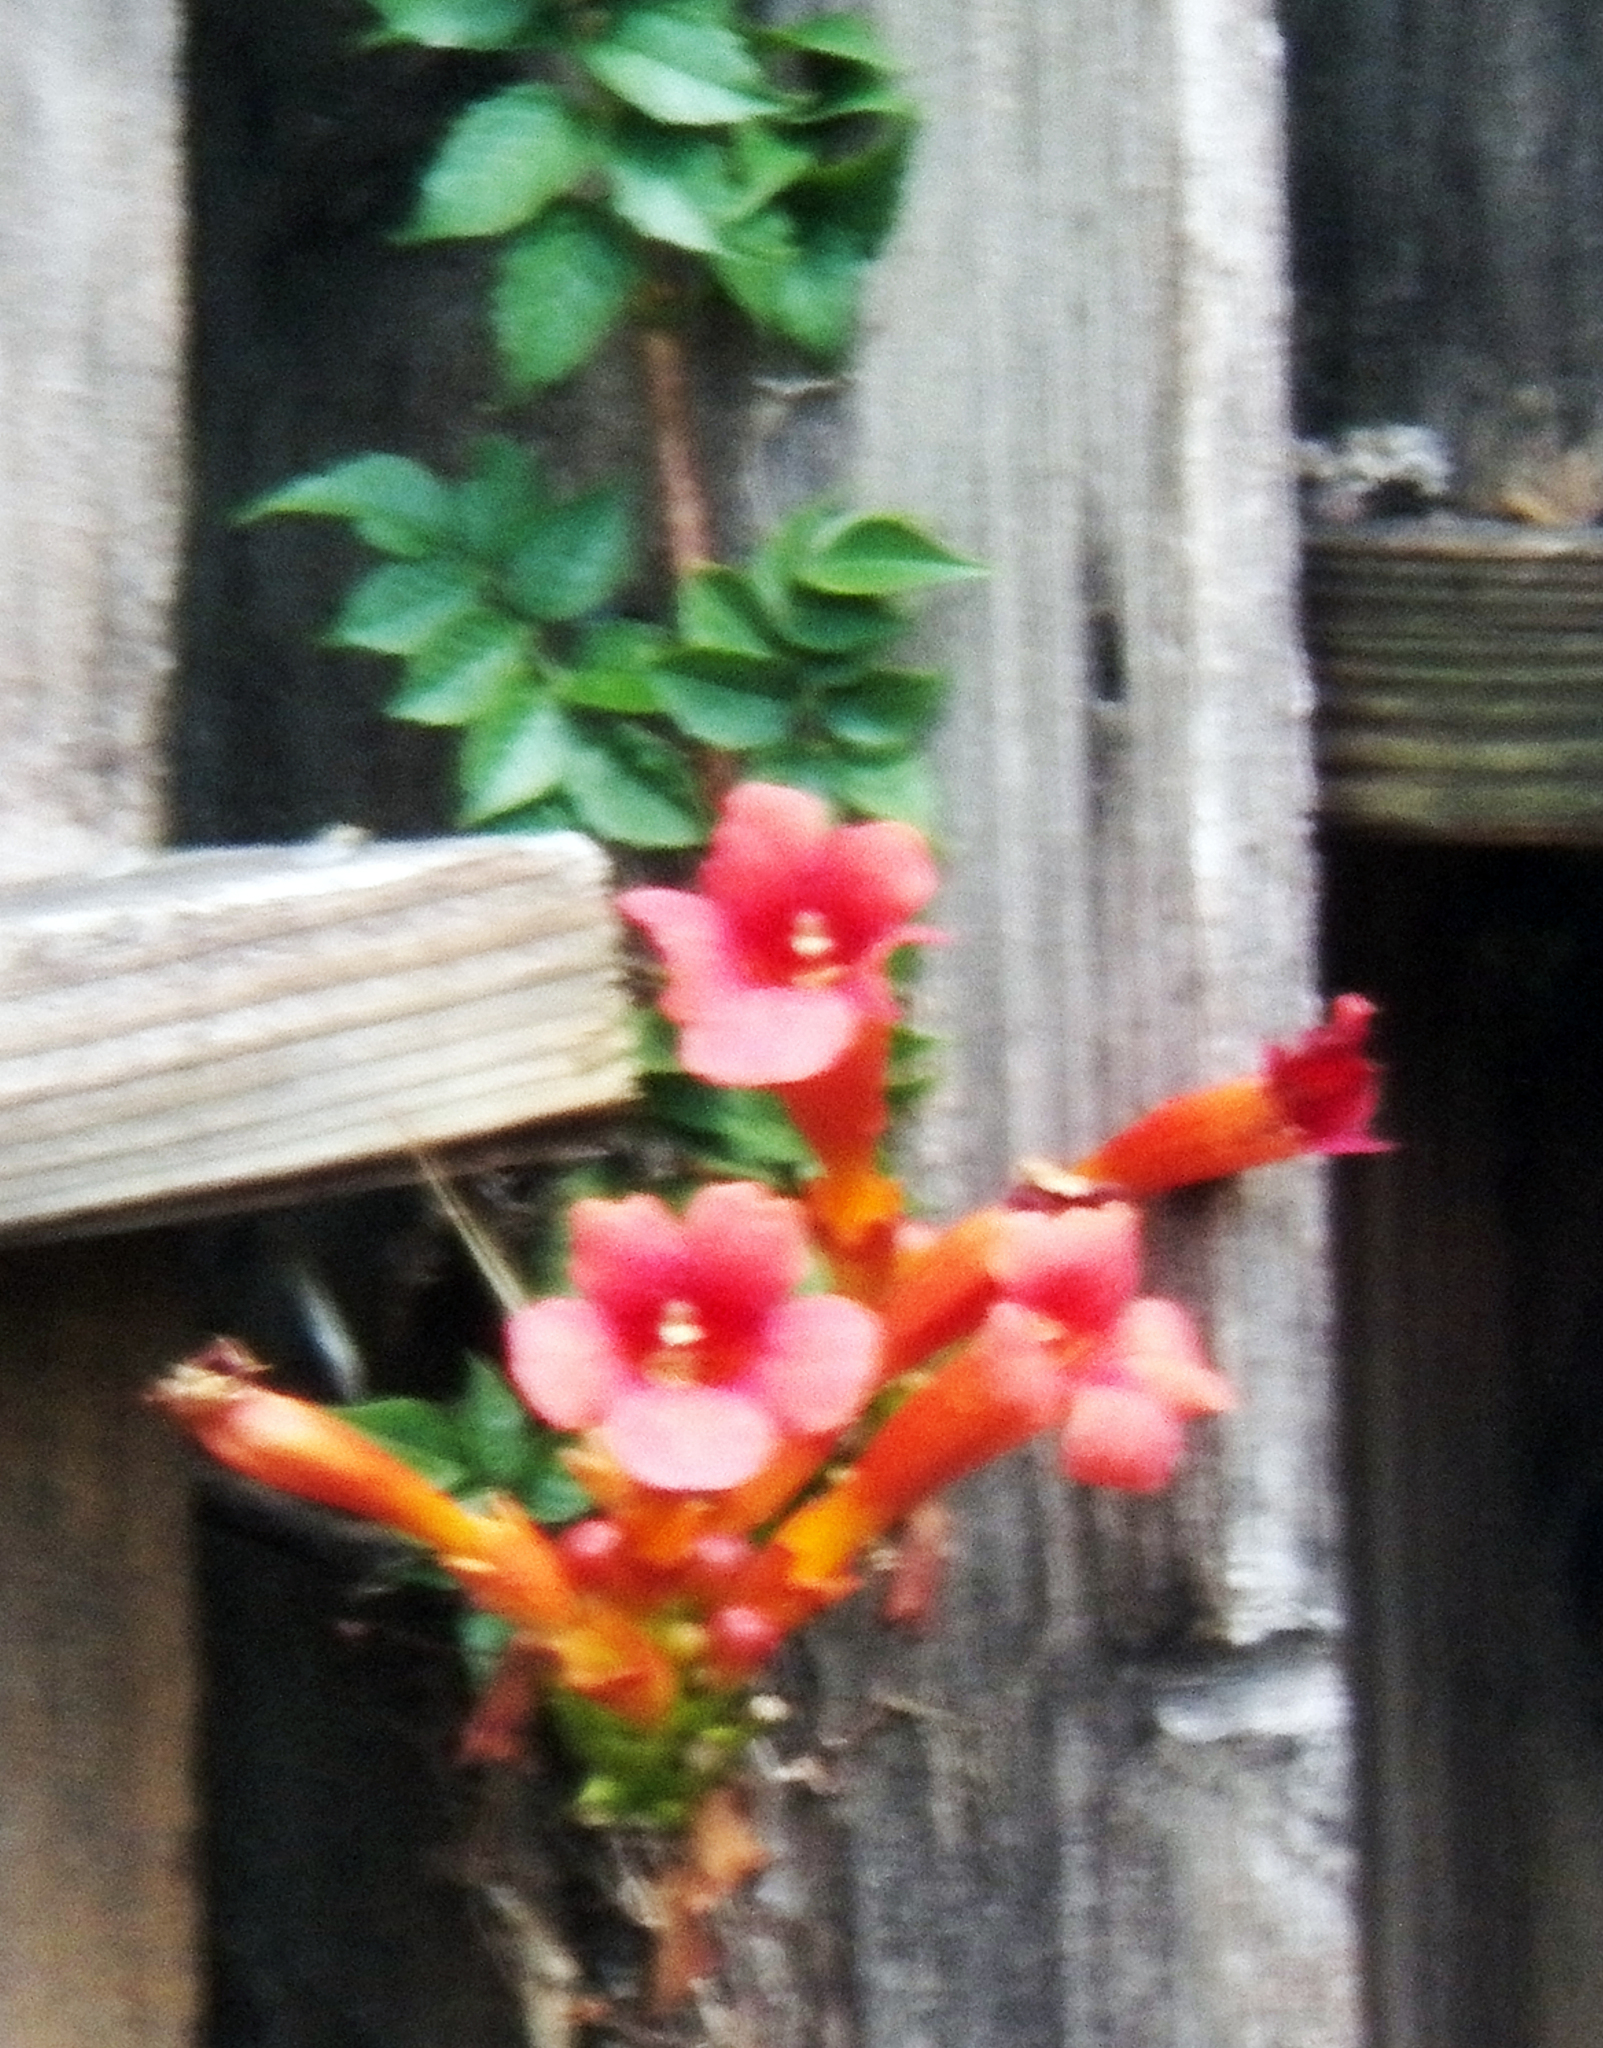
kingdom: Plantae
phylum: Tracheophyta
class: Magnoliopsida
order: Lamiales
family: Bignoniaceae
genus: Campsis
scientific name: Campsis radicans
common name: Trumpet-creeper
